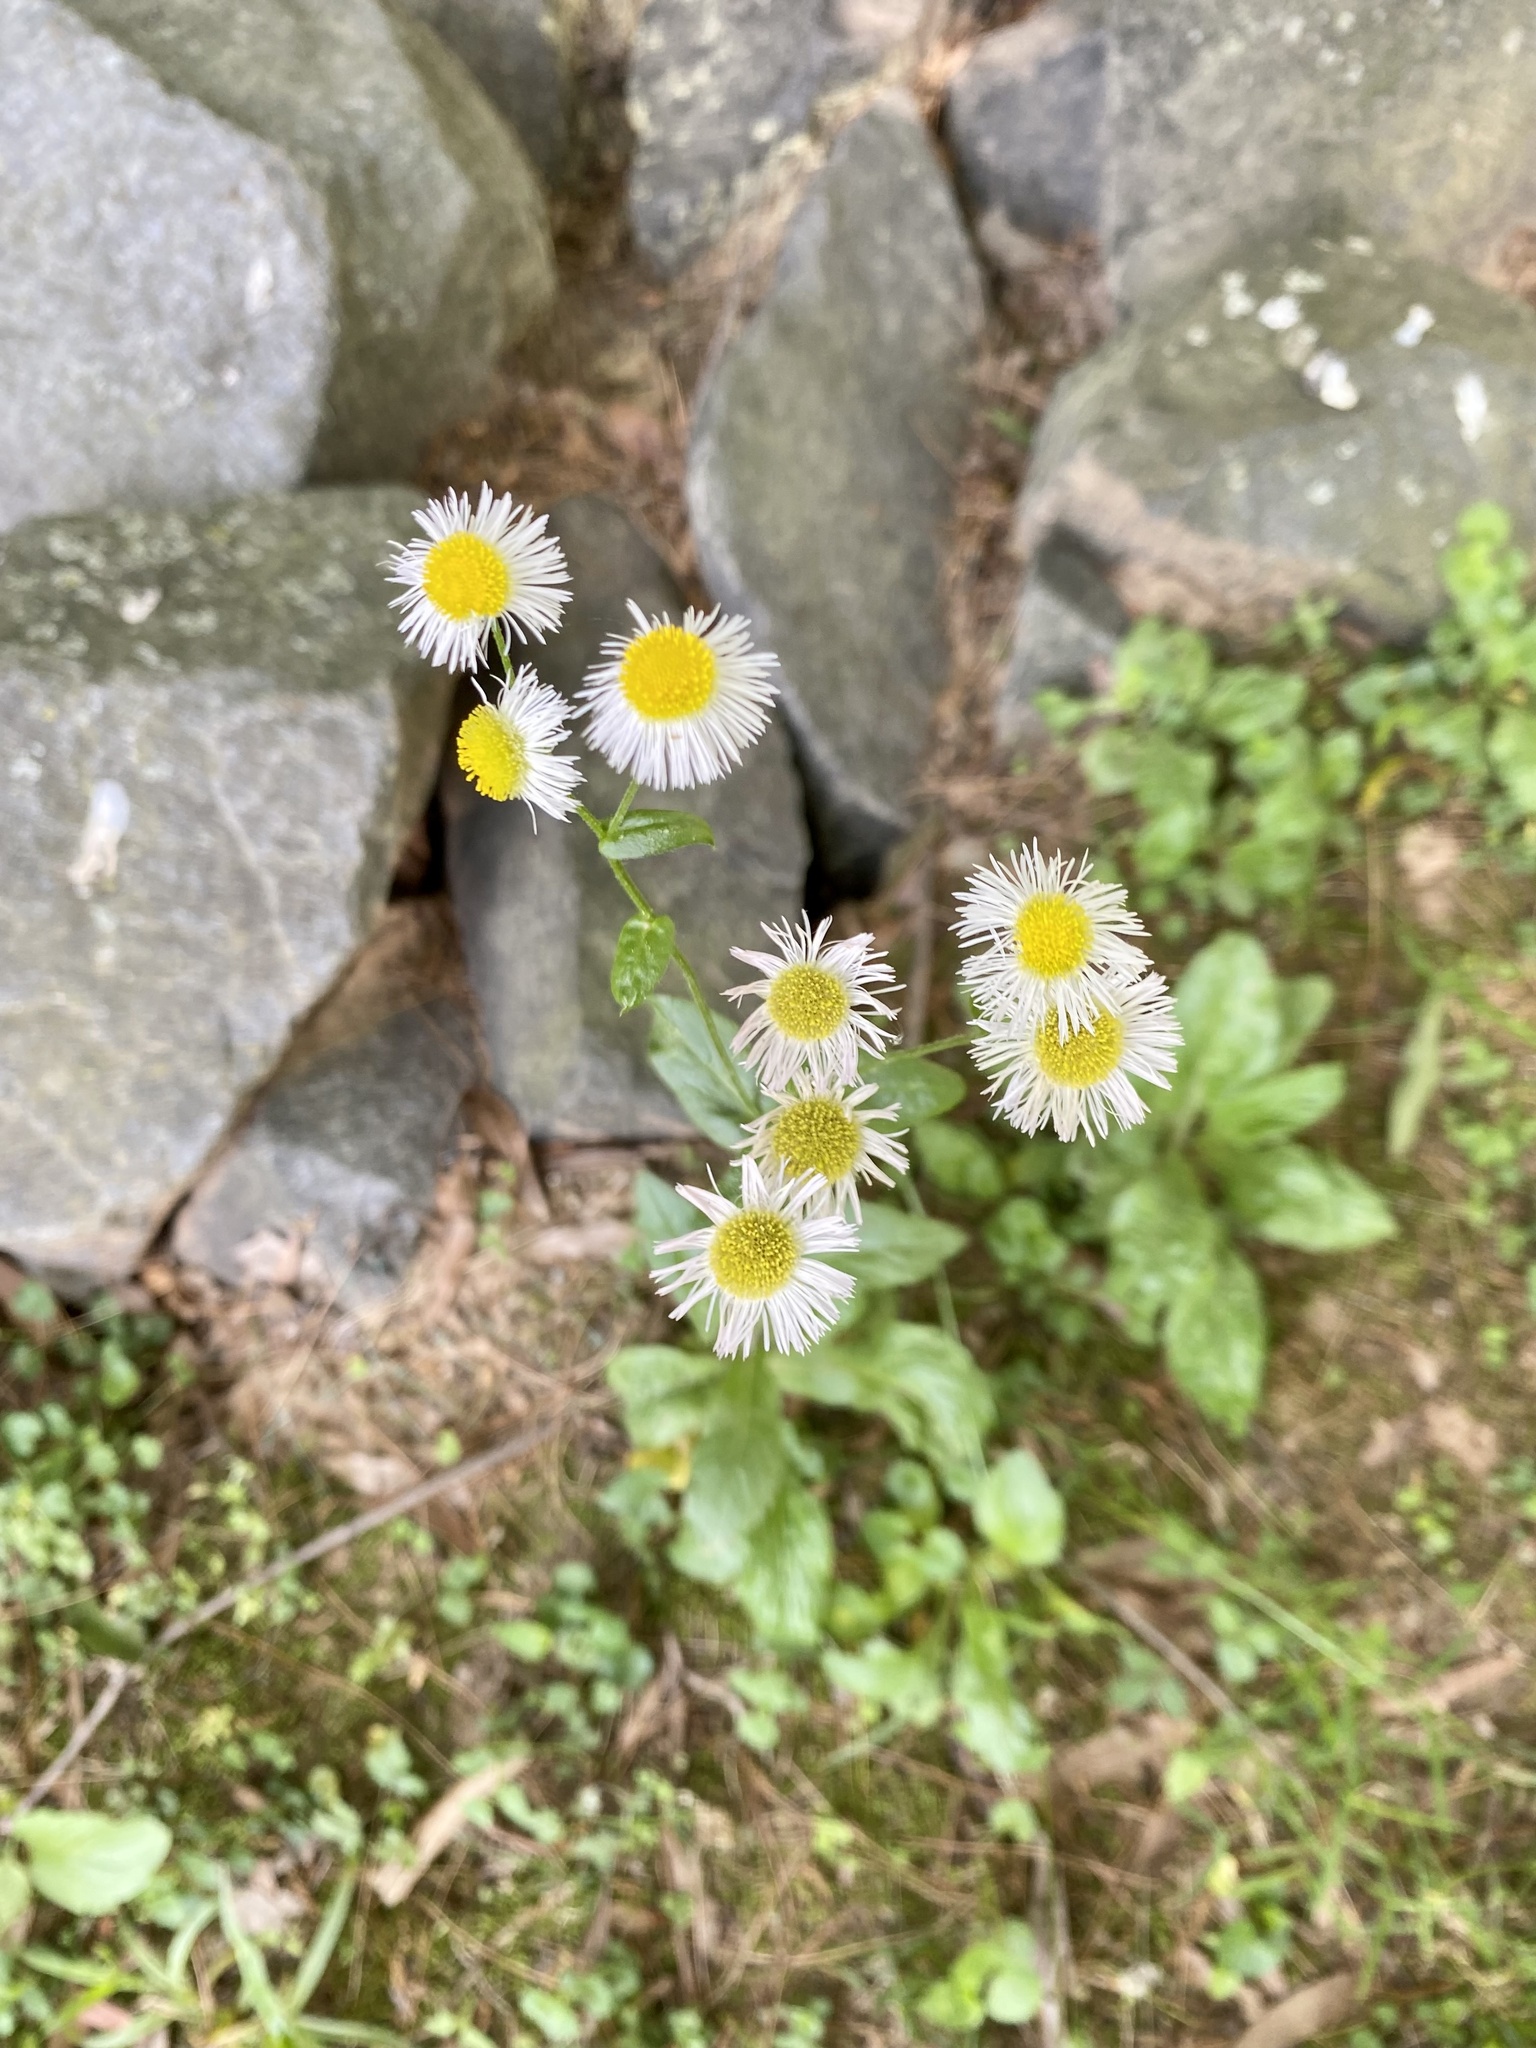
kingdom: Plantae
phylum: Tracheophyta
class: Magnoliopsida
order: Asterales
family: Asteraceae
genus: Erigeron
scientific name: Erigeron philadelphicus
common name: Robin's-plantain
